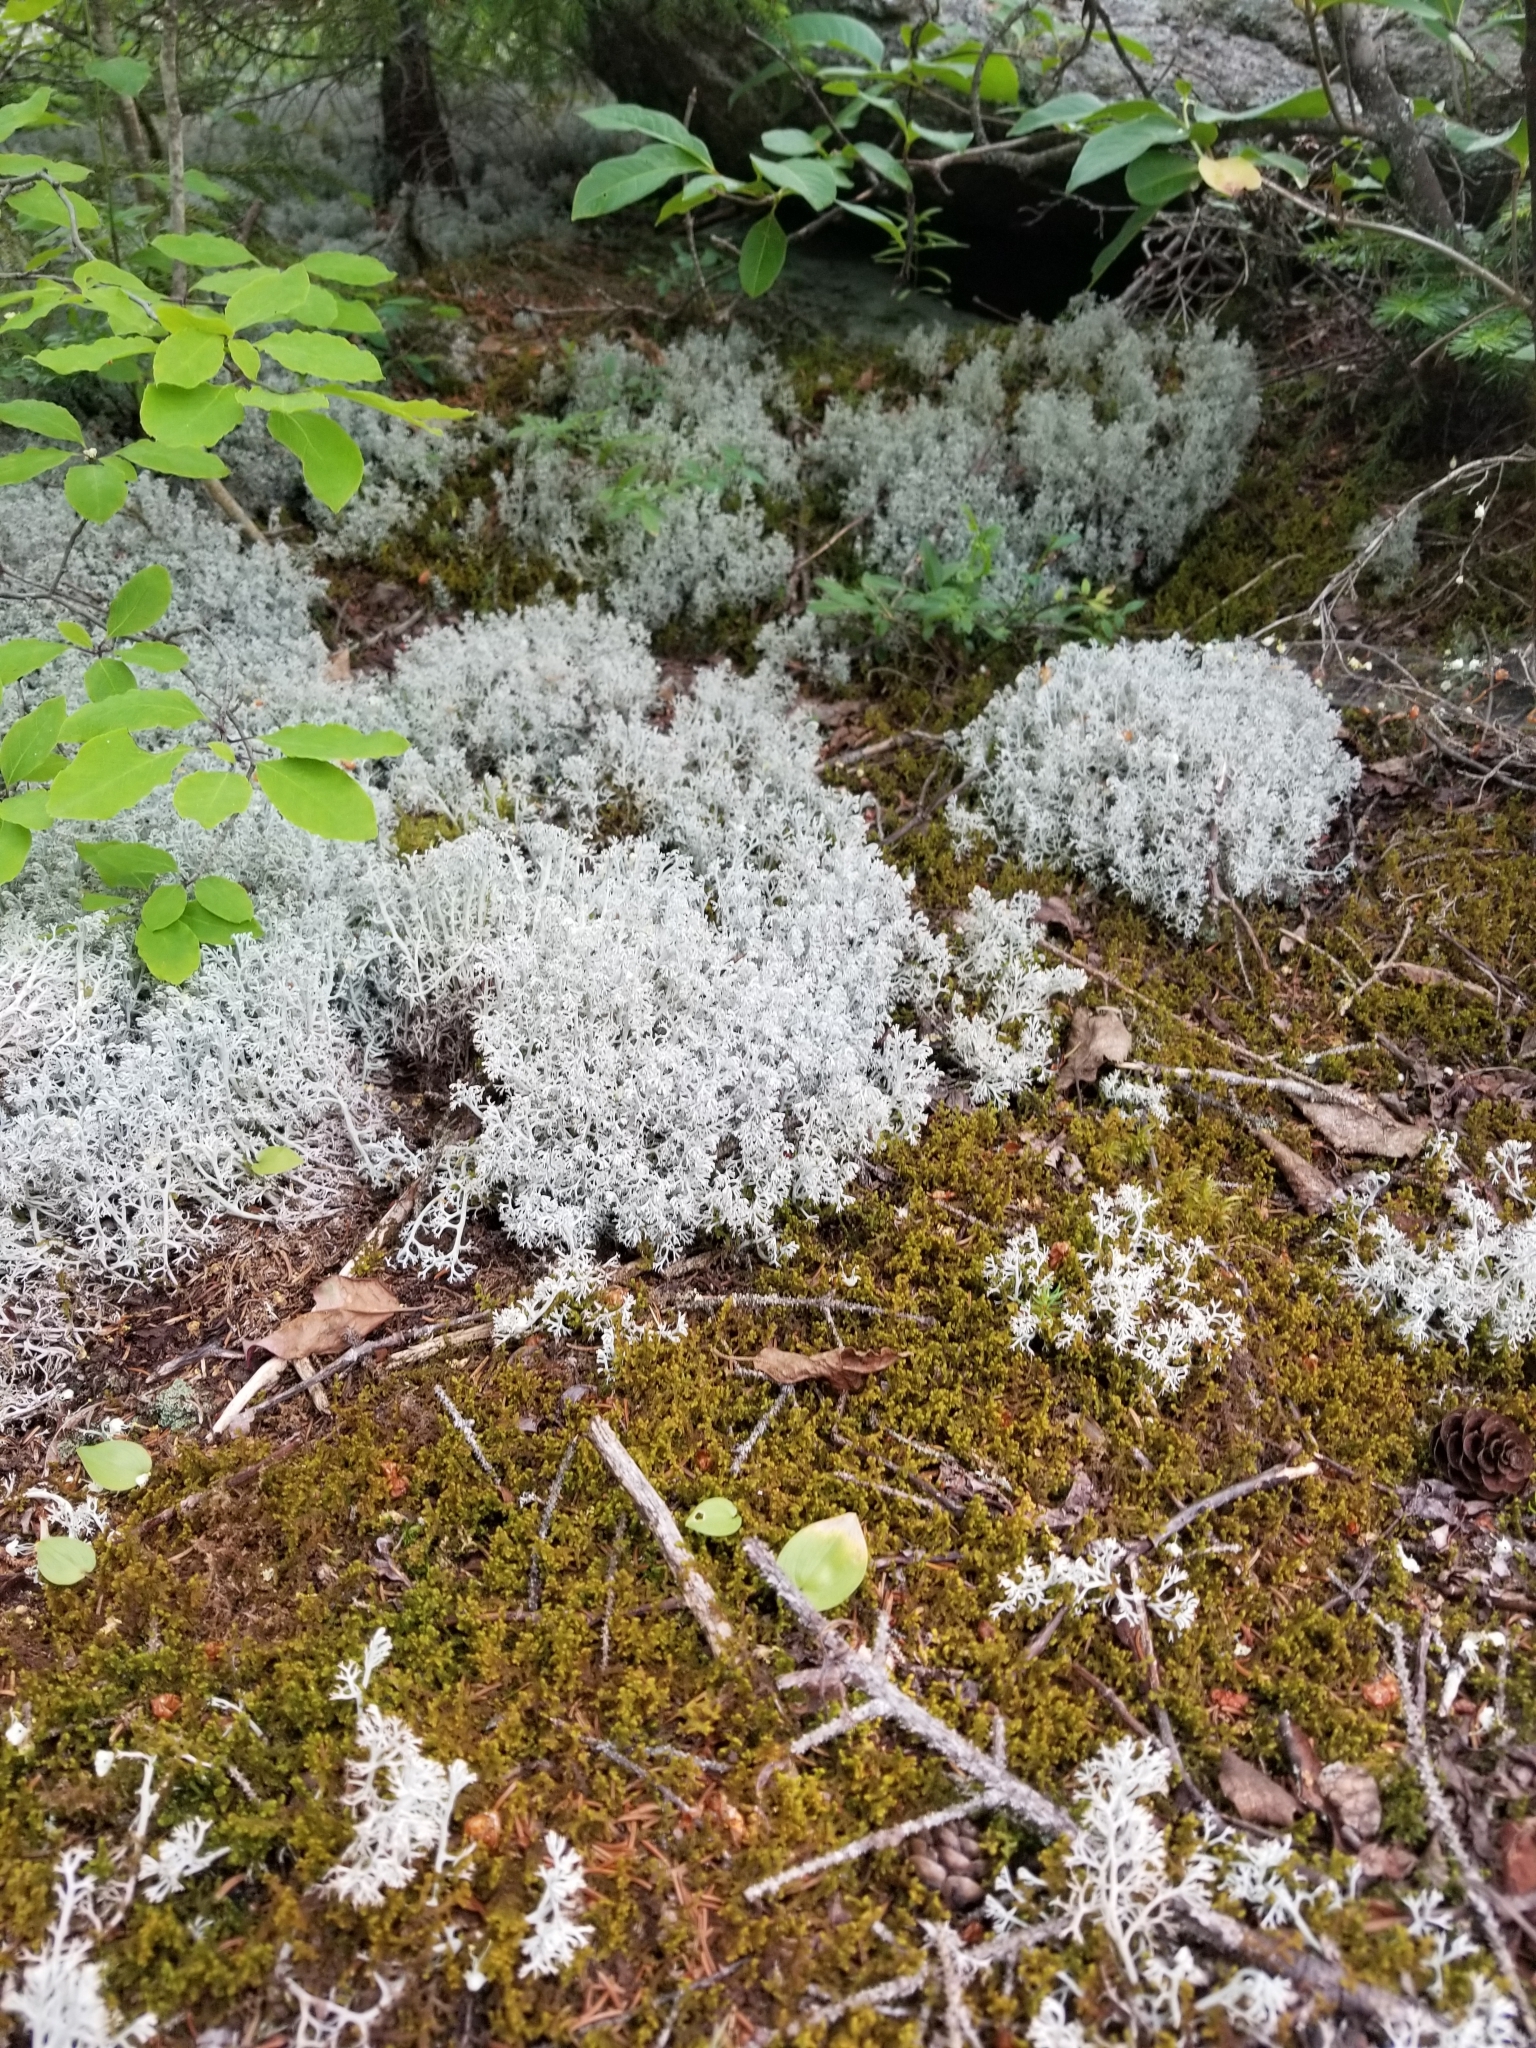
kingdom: Fungi
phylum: Ascomycota
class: Lecanoromycetes
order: Lecanorales
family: Cladoniaceae
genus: Cladonia
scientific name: Cladonia rangiferina
